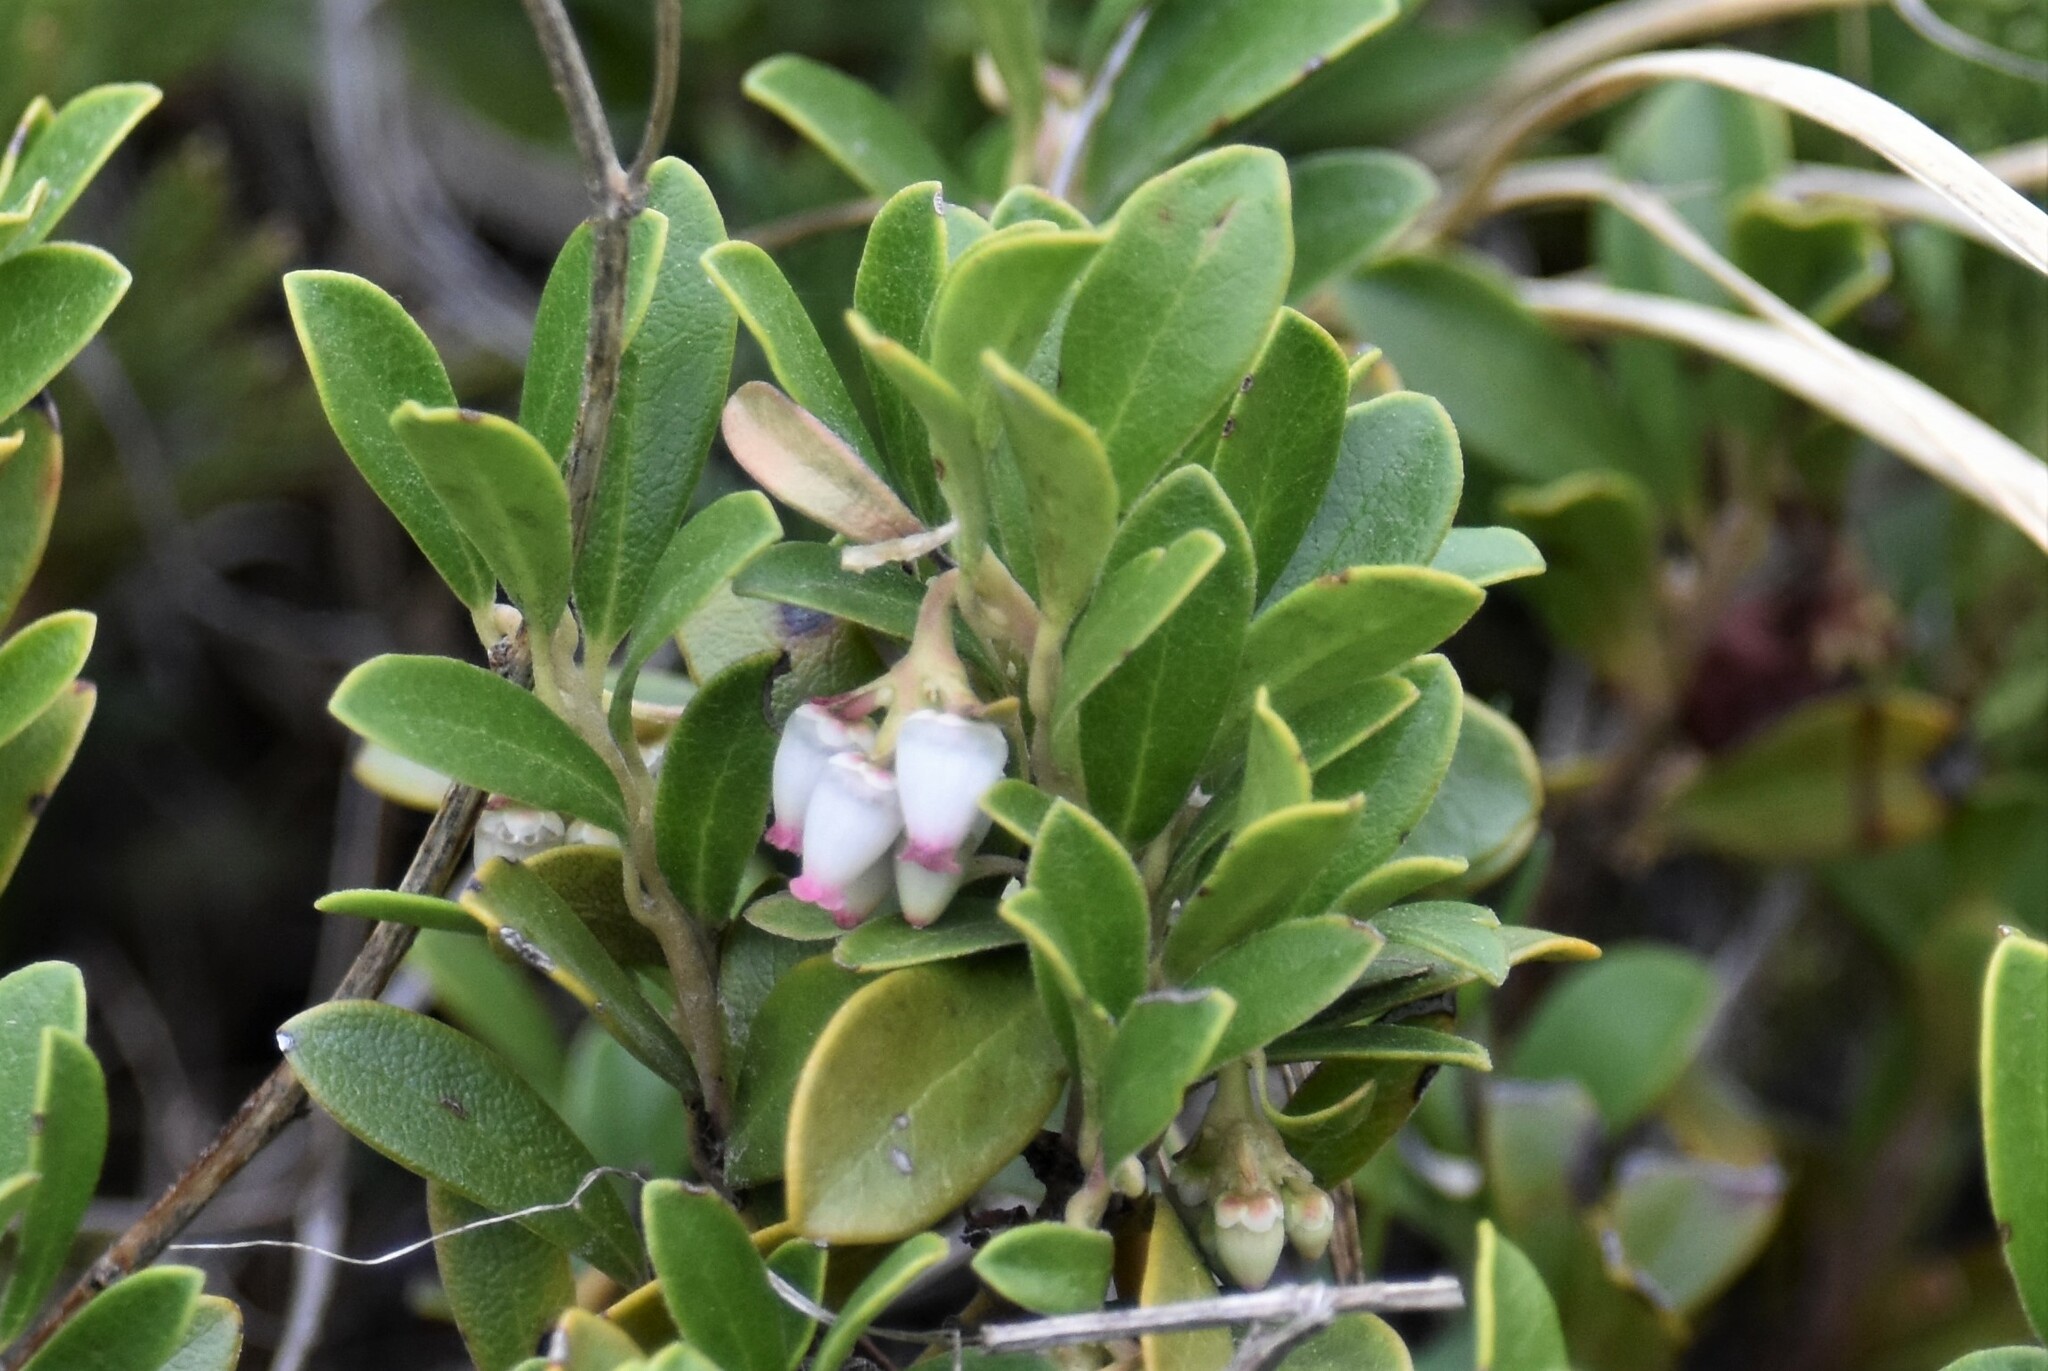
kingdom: Plantae
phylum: Tracheophyta
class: Magnoliopsida
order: Ericales
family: Ericaceae
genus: Arctostaphylos
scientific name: Arctostaphylos uva-ursi
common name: Bearberry
